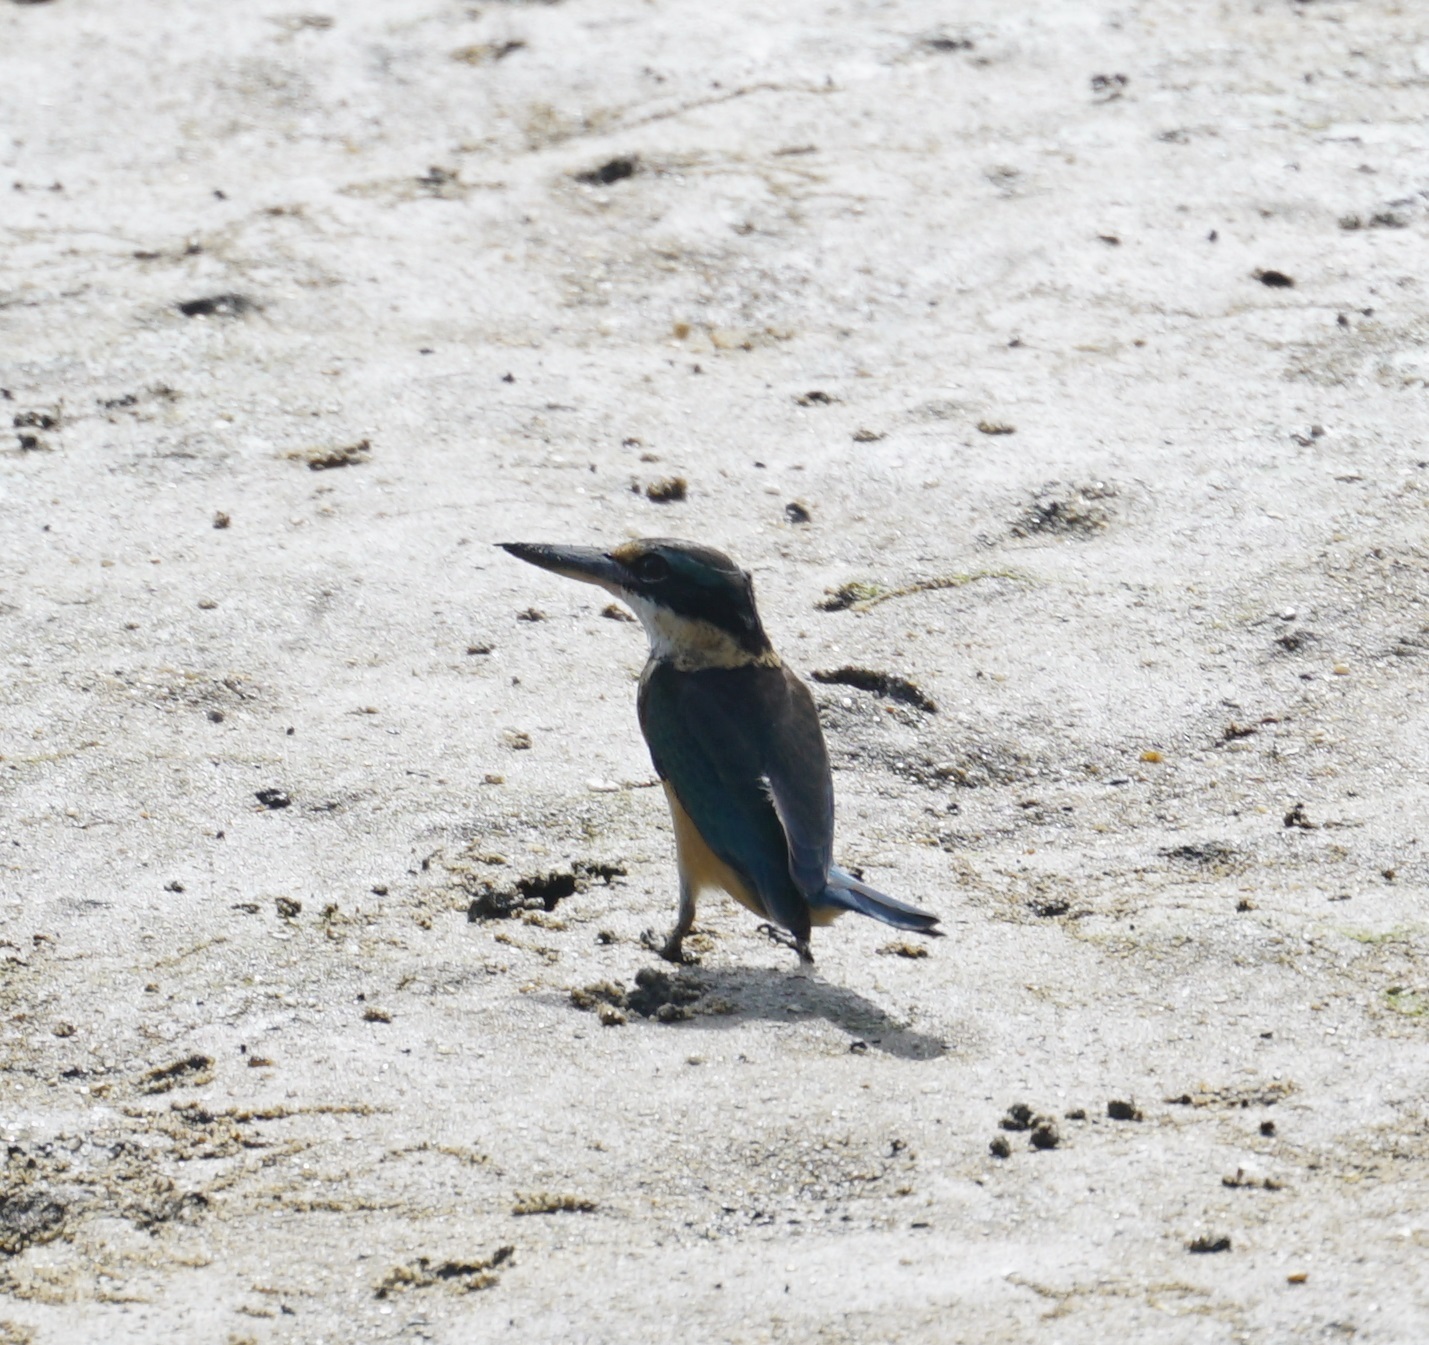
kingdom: Animalia
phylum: Chordata
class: Aves
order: Coraciiformes
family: Alcedinidae
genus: Todiramphus
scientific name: Todiramphus sanctus
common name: Sacred kingfisher
